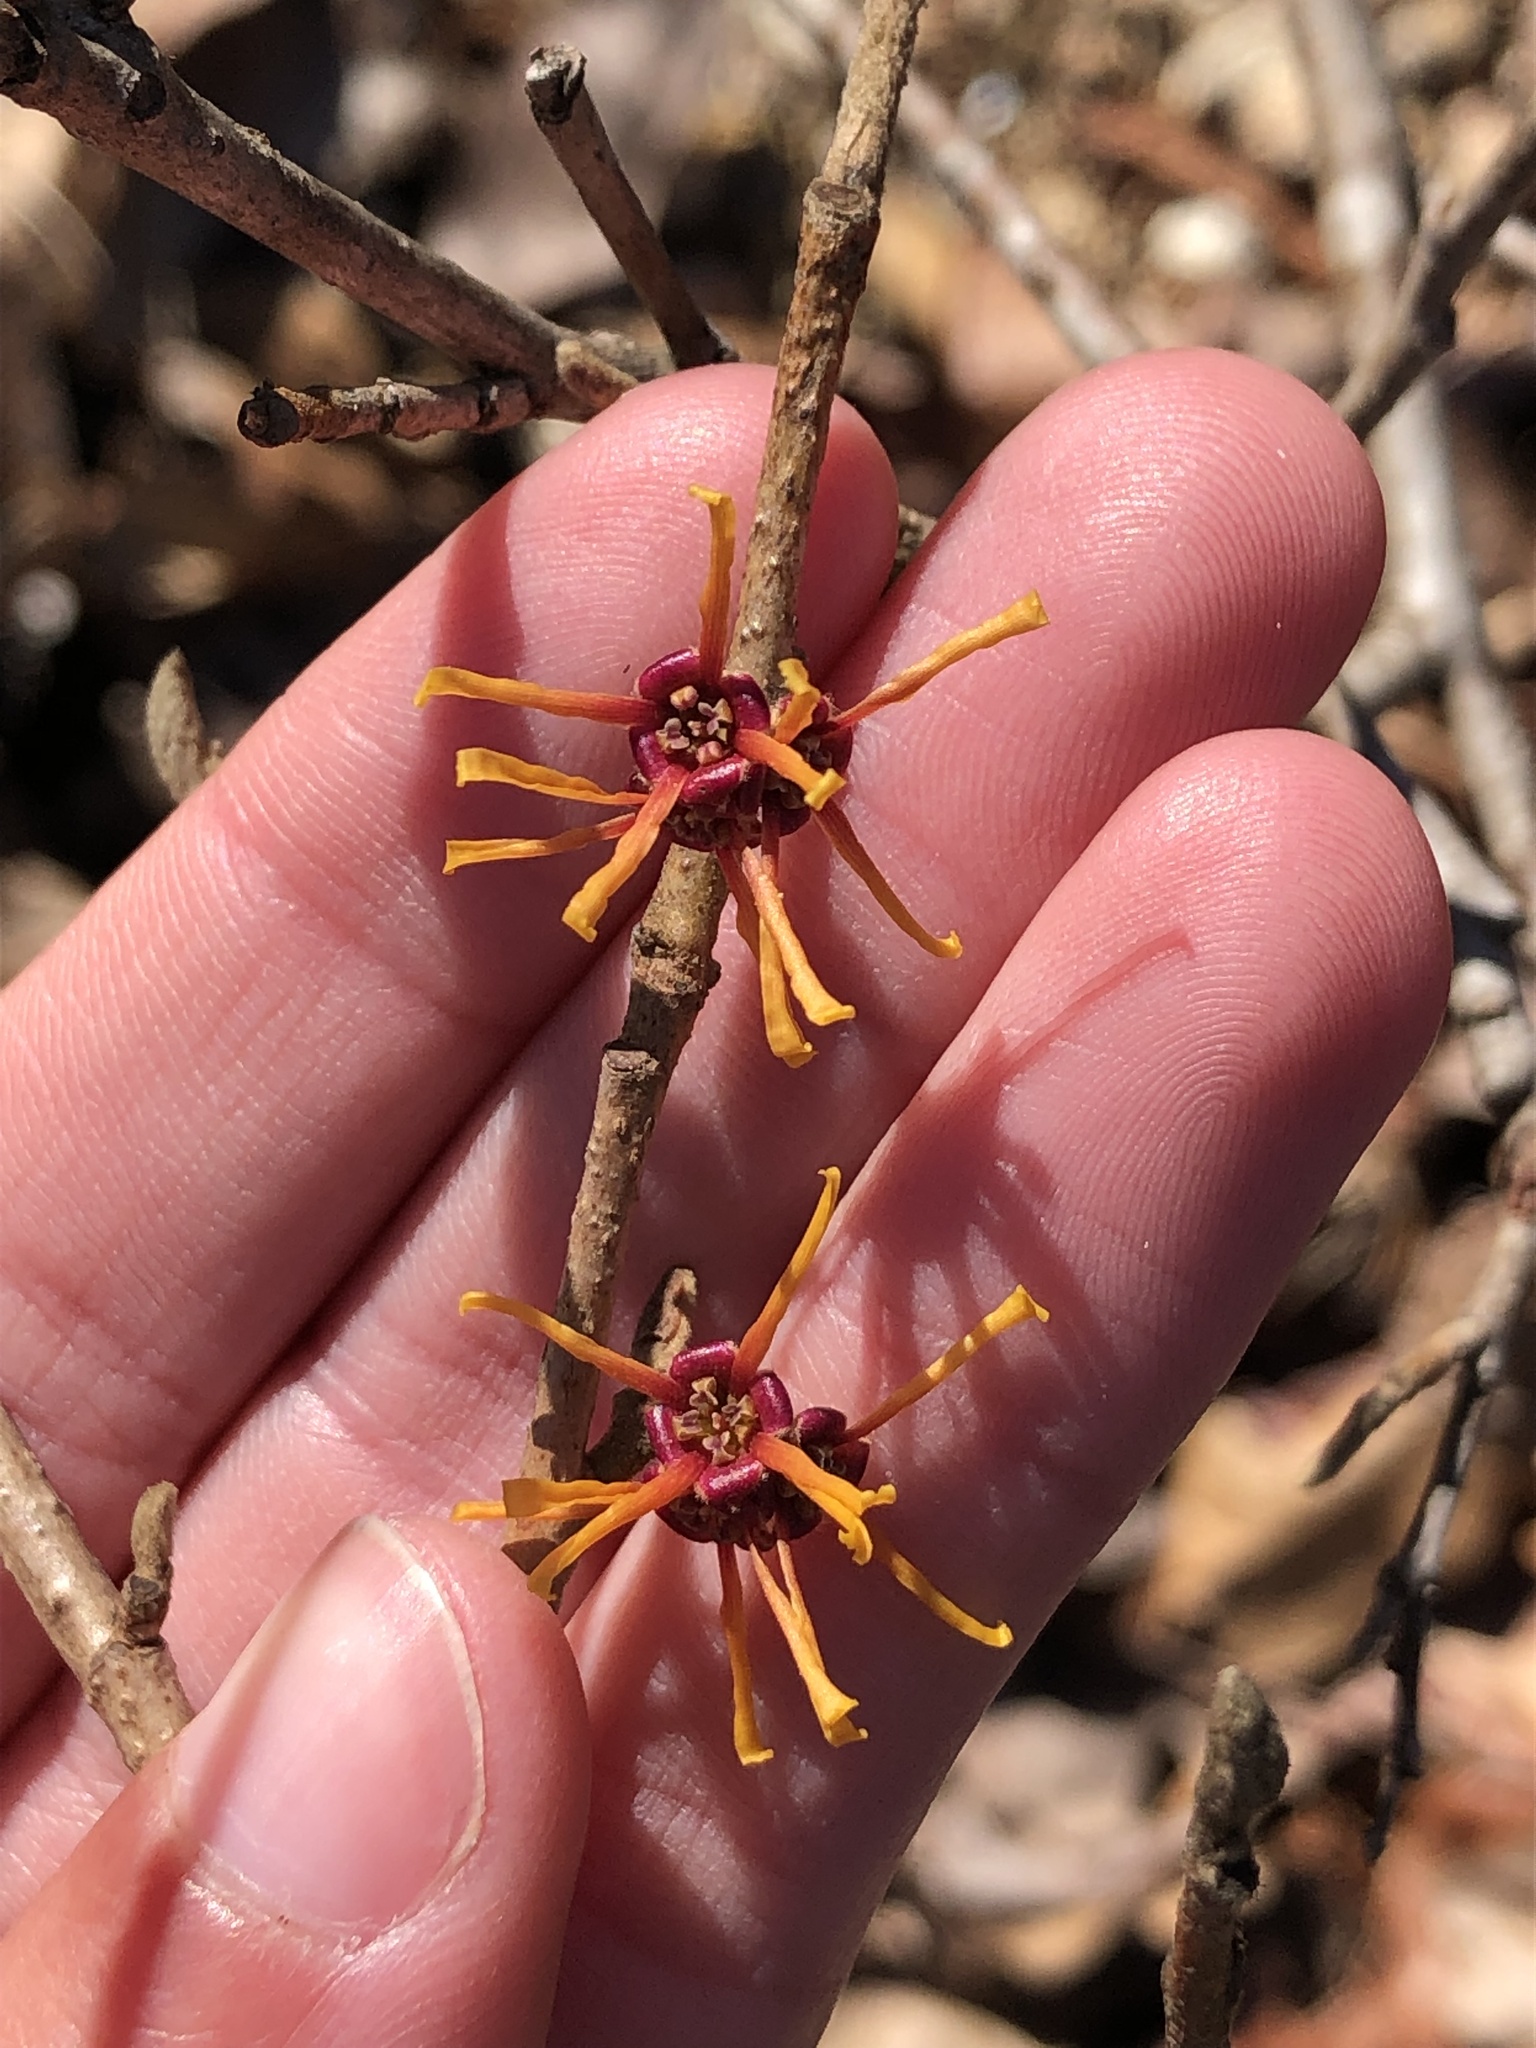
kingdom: Plantae
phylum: Tracheophyta
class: Magnoliopsida
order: Saxifragales
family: Hamamelidaceae
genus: Hamamelis
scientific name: Hamamelis vernalis
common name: Ozark witch-hazel
